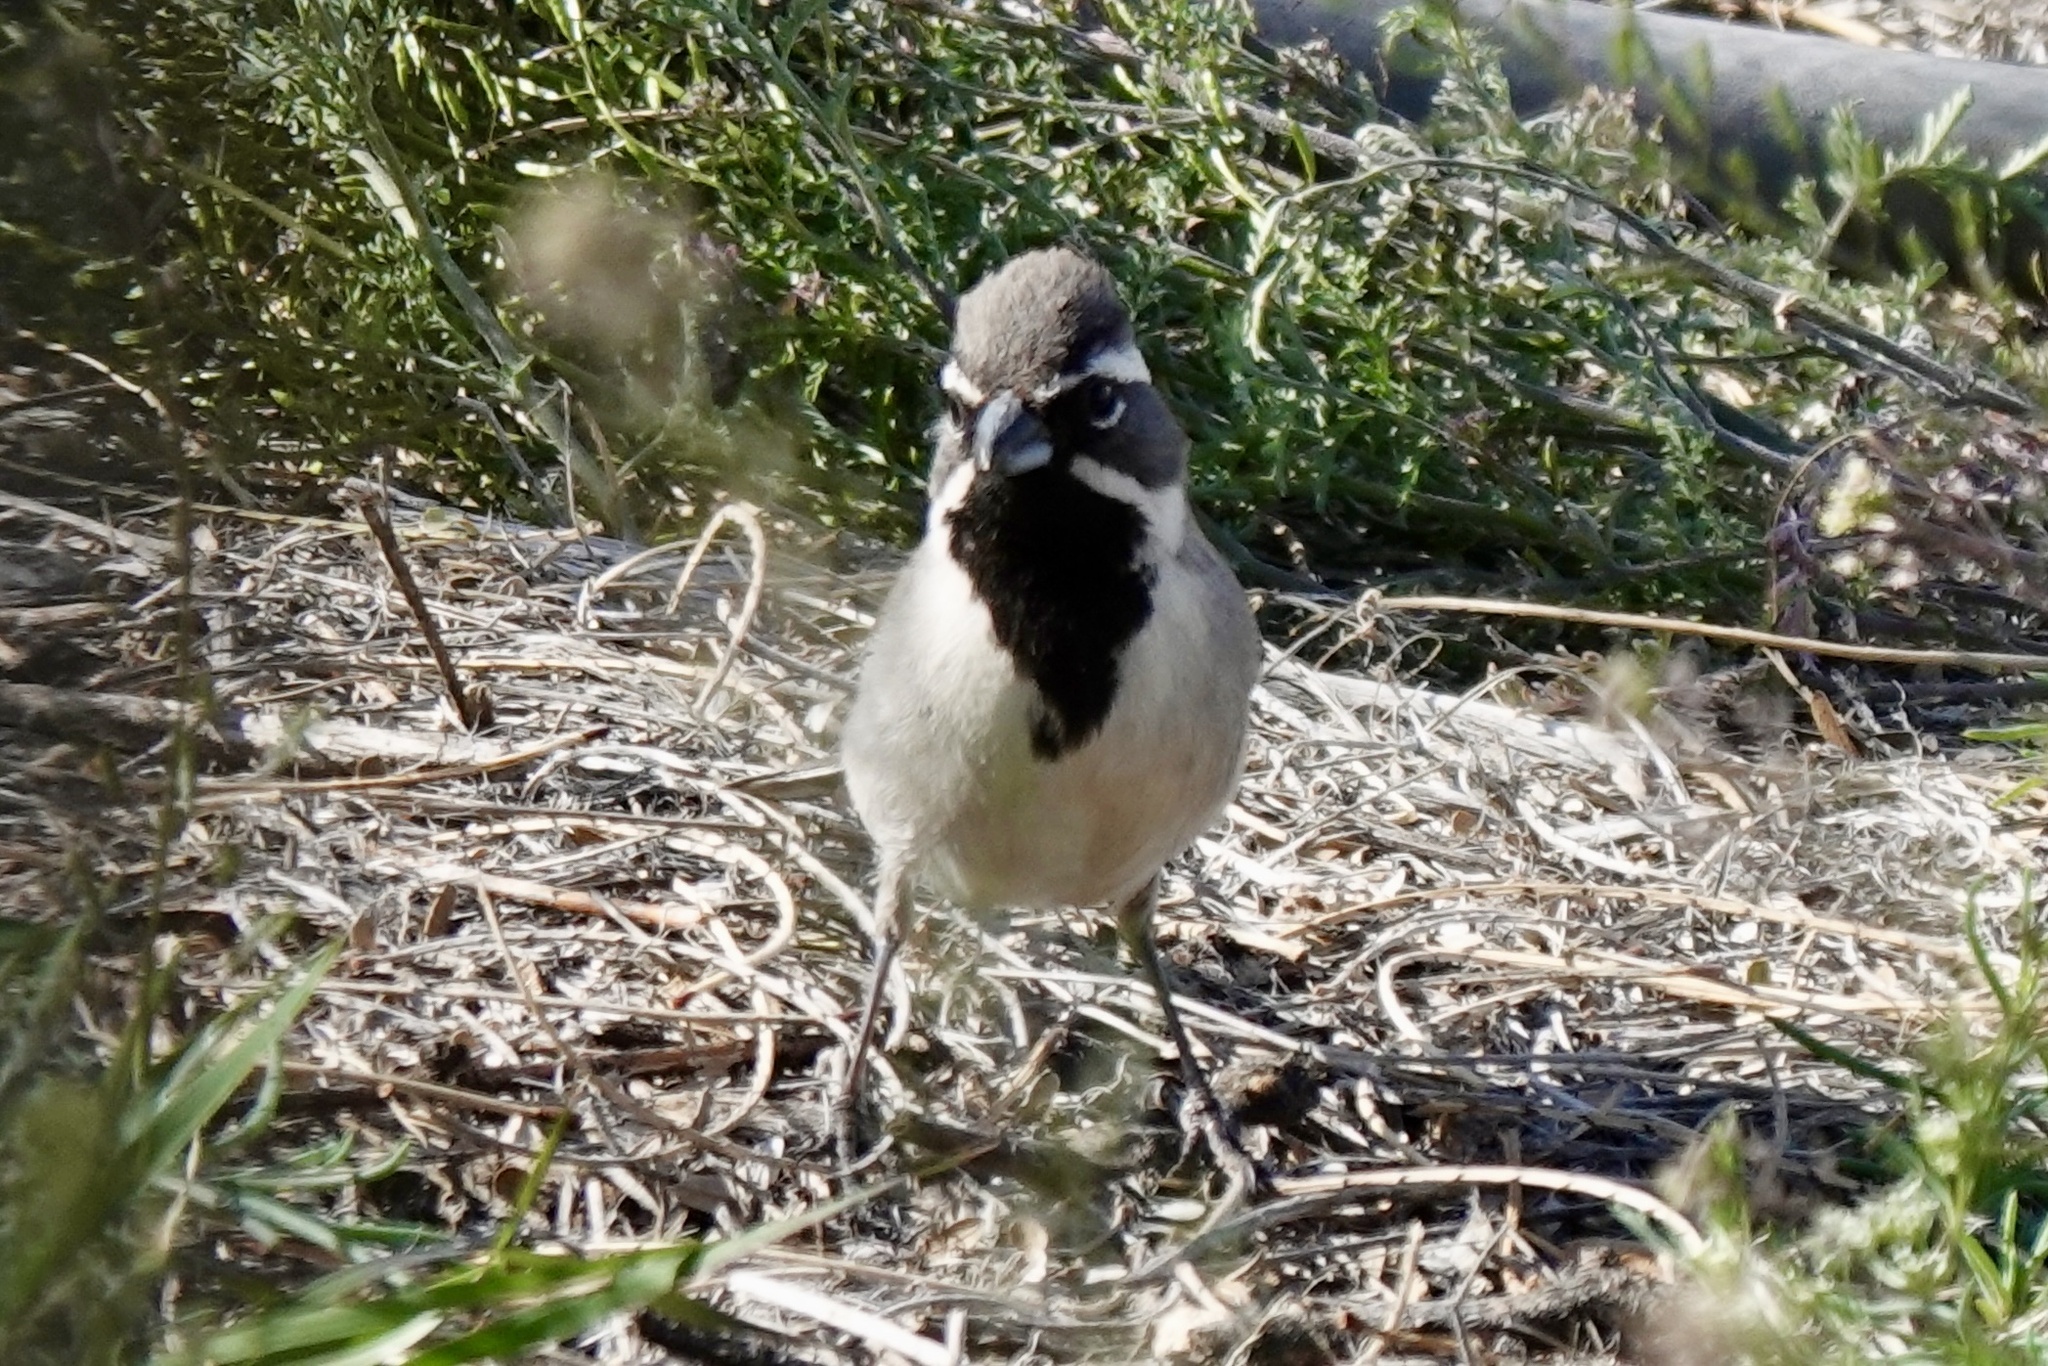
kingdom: Animalia
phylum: Chordata
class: Aves
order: Passeriformes
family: Passerellidae
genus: Amphispiza
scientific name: Amphispiza bilineata
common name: Black-throated sparrow
